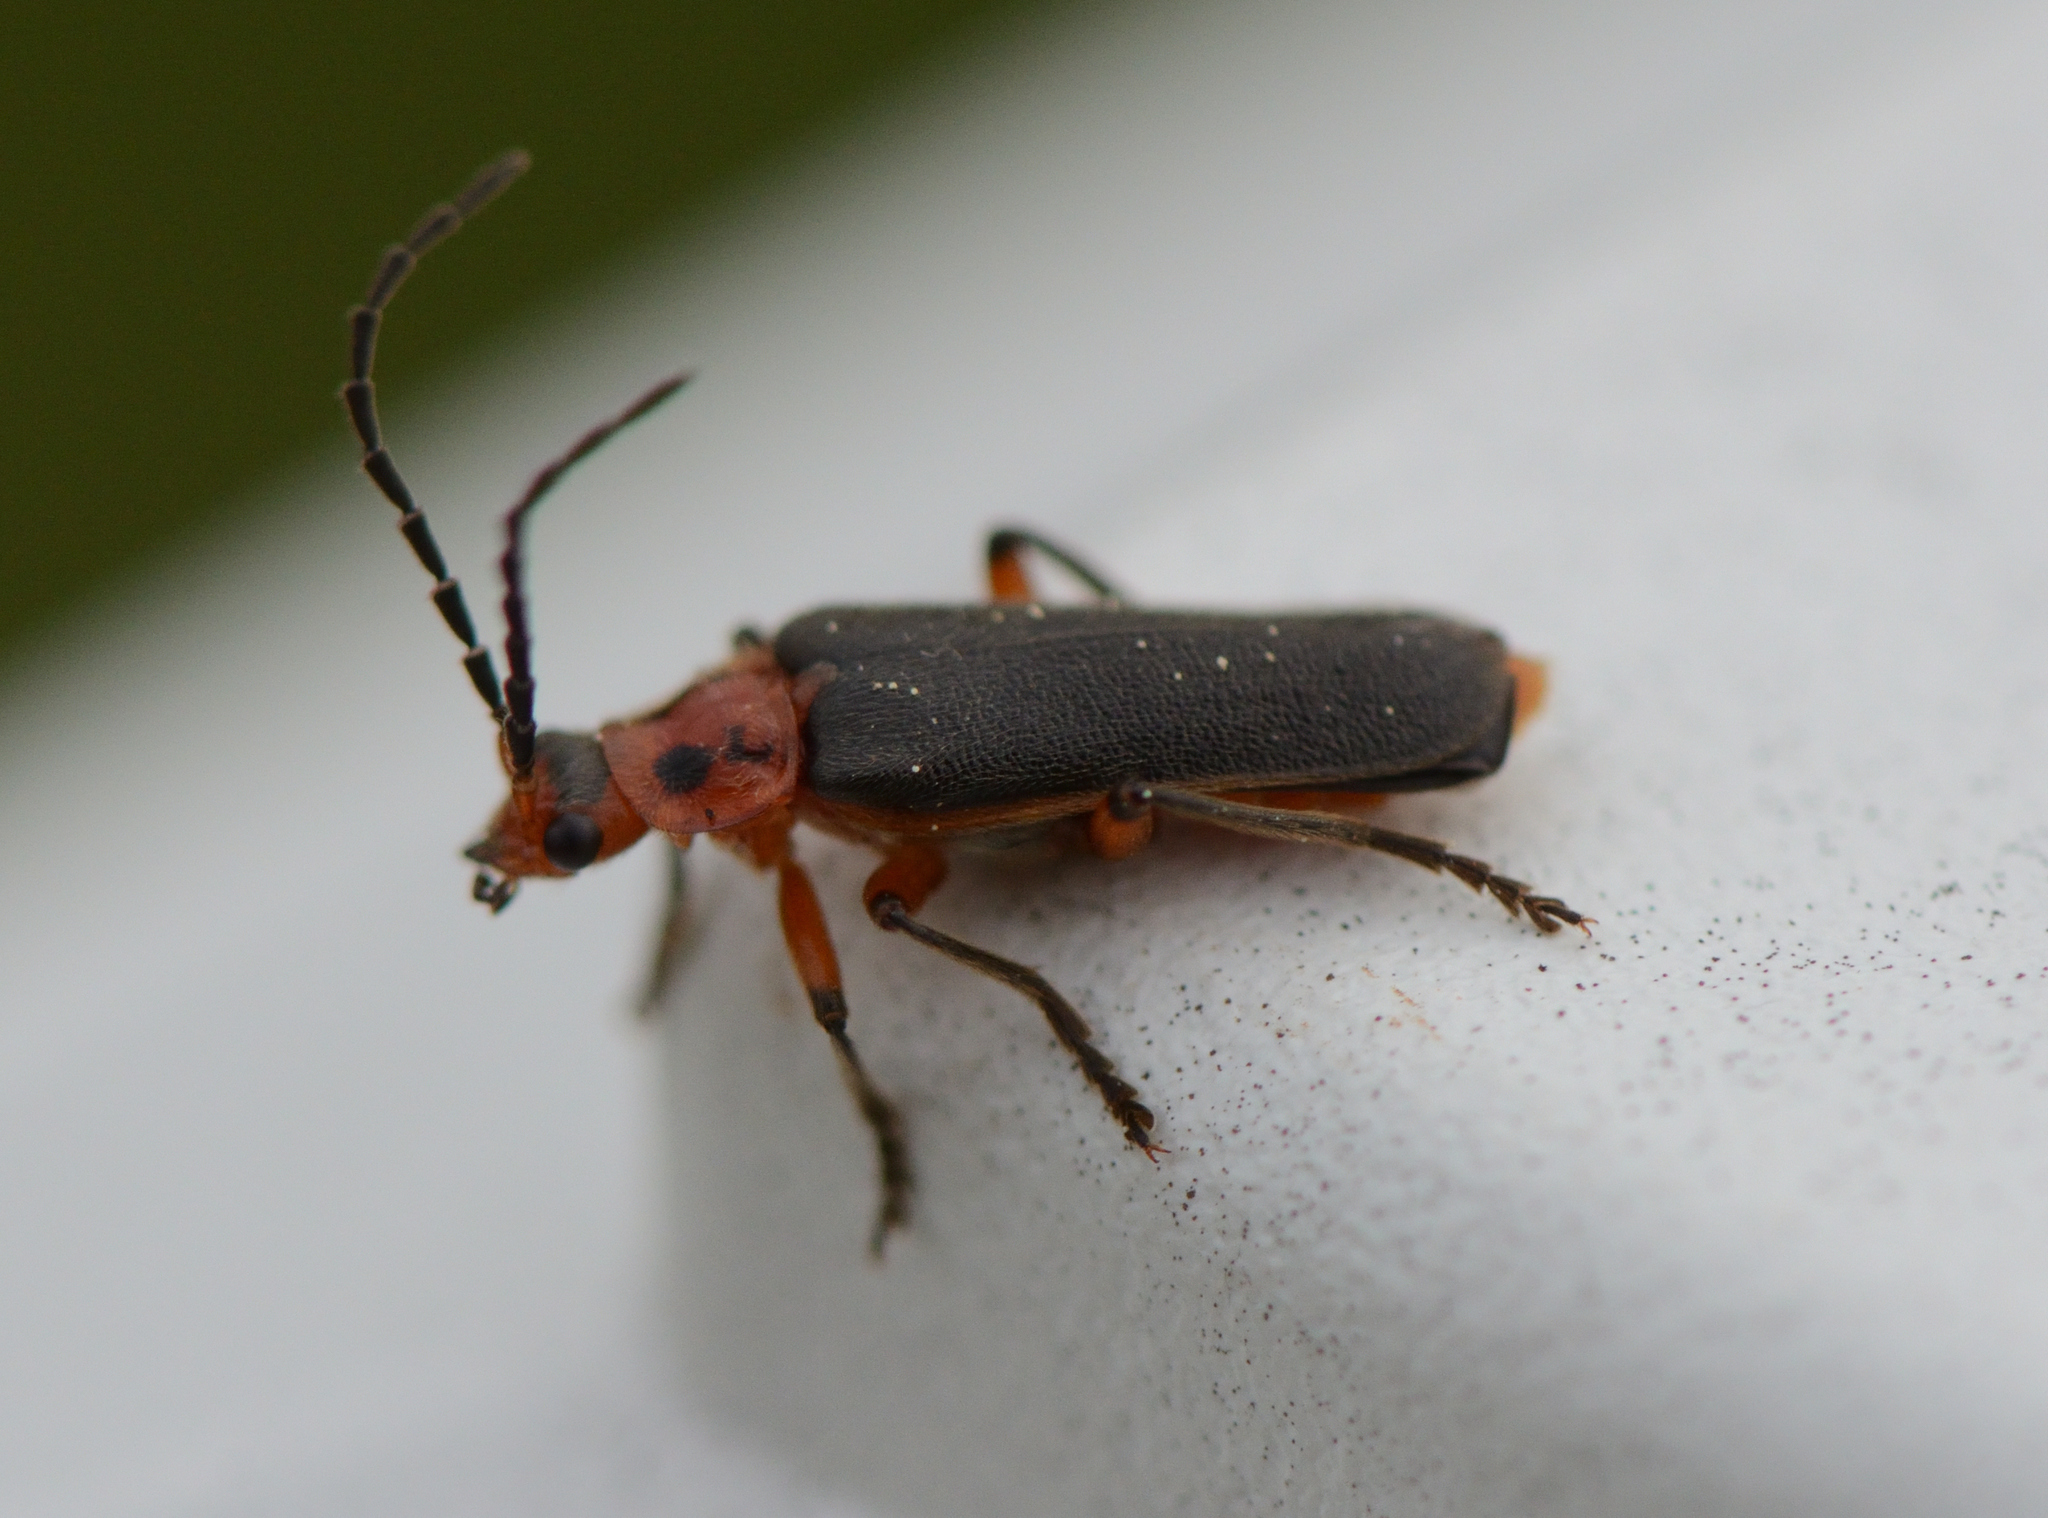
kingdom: Animalia
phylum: Arthropoda
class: Insecta
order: Coleoptera
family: Cantharidae
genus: Atalantycha
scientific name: Atalantycha bilineata
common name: Two-lined leatherwing
